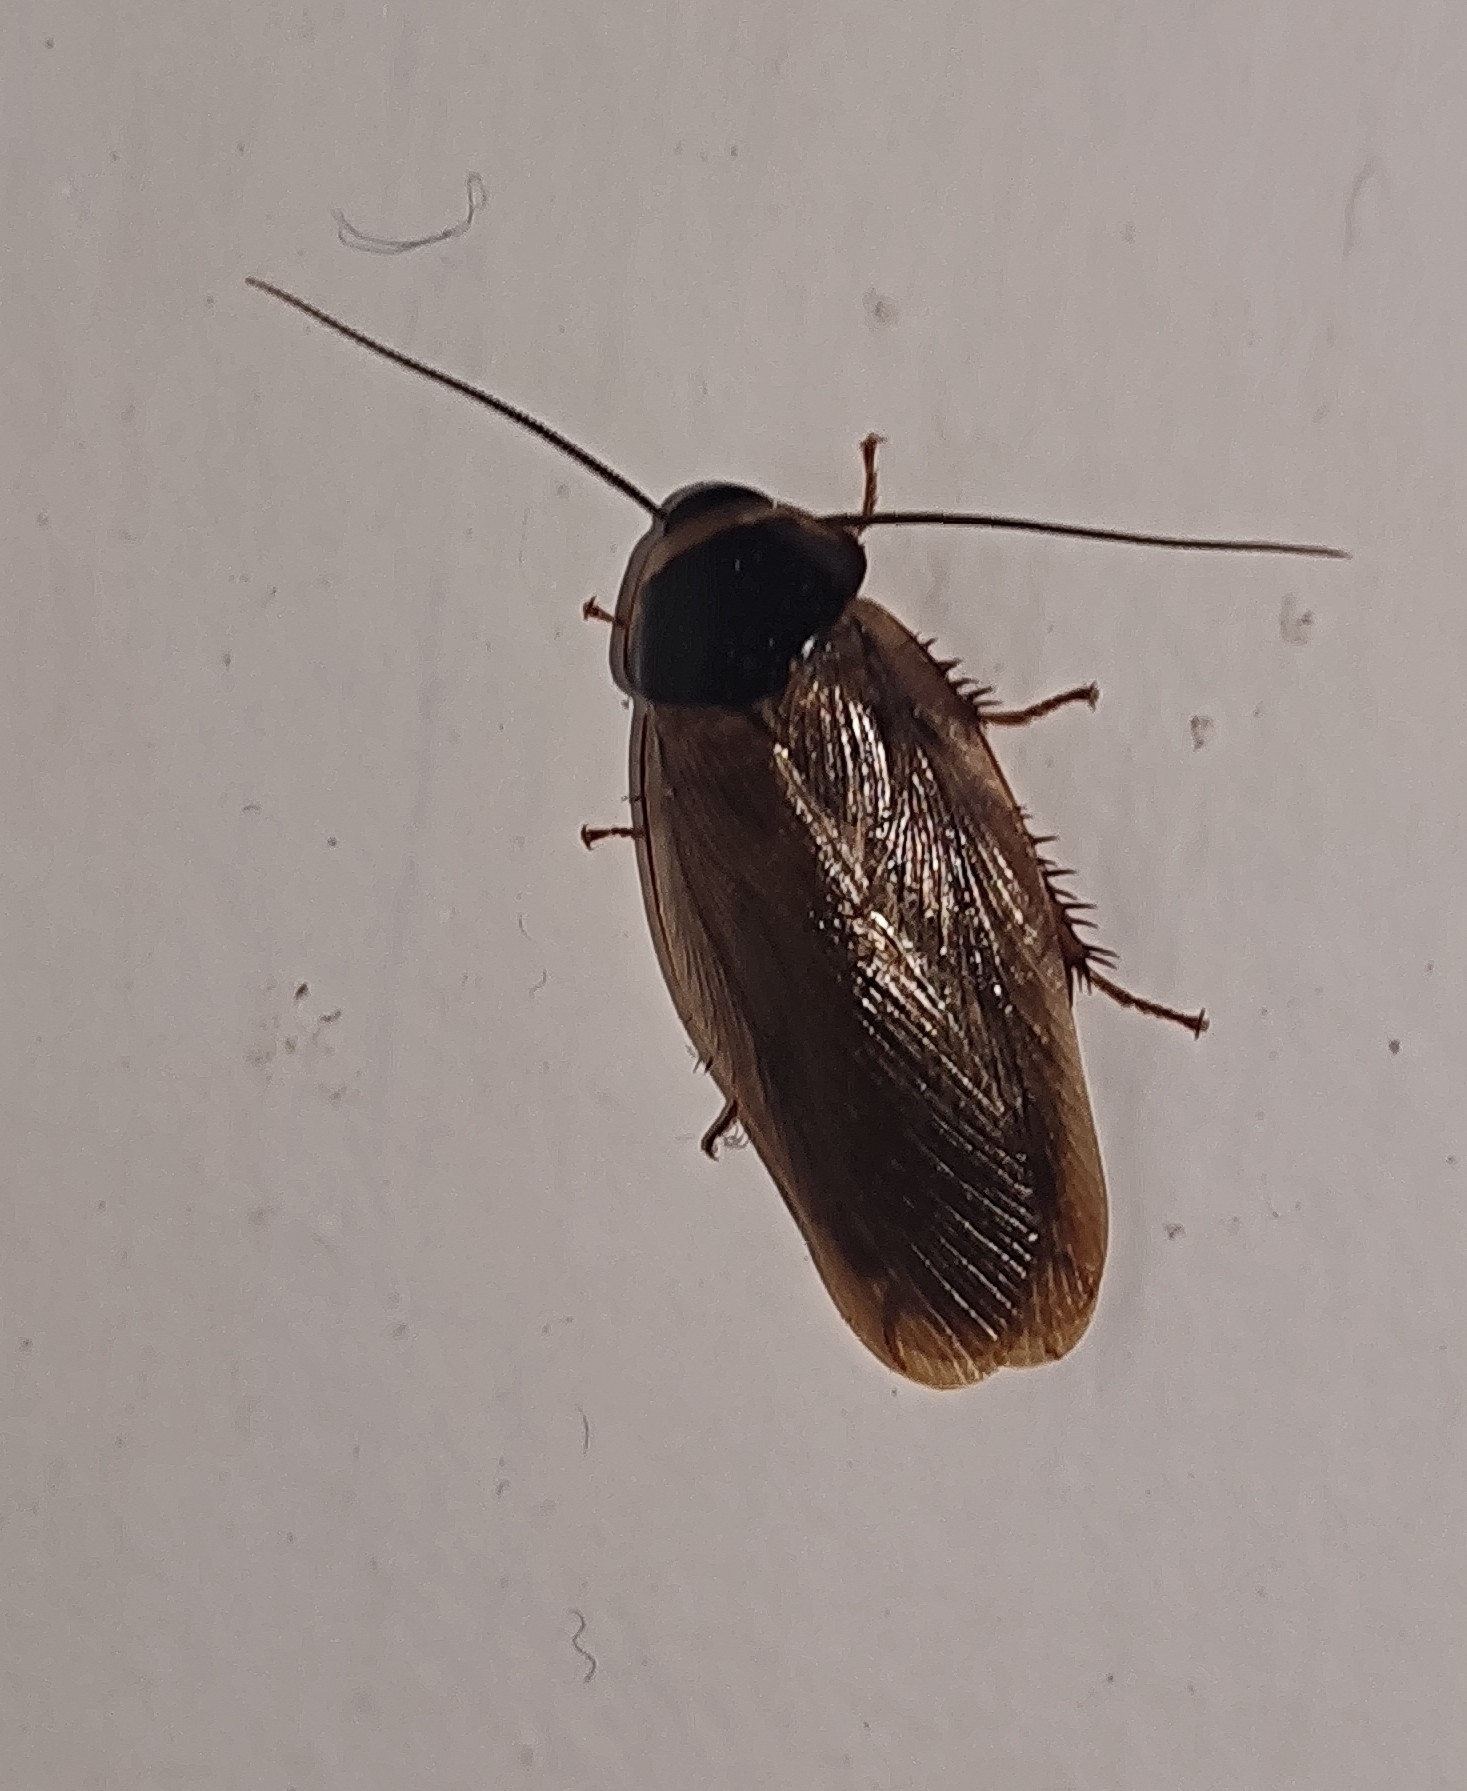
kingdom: Animalia
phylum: Arthropoda
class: Insecta
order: Blattodea
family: Blaberidae
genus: Pycnoscelus
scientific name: Pycnoscelus indicus
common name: Burrowing cockroach
